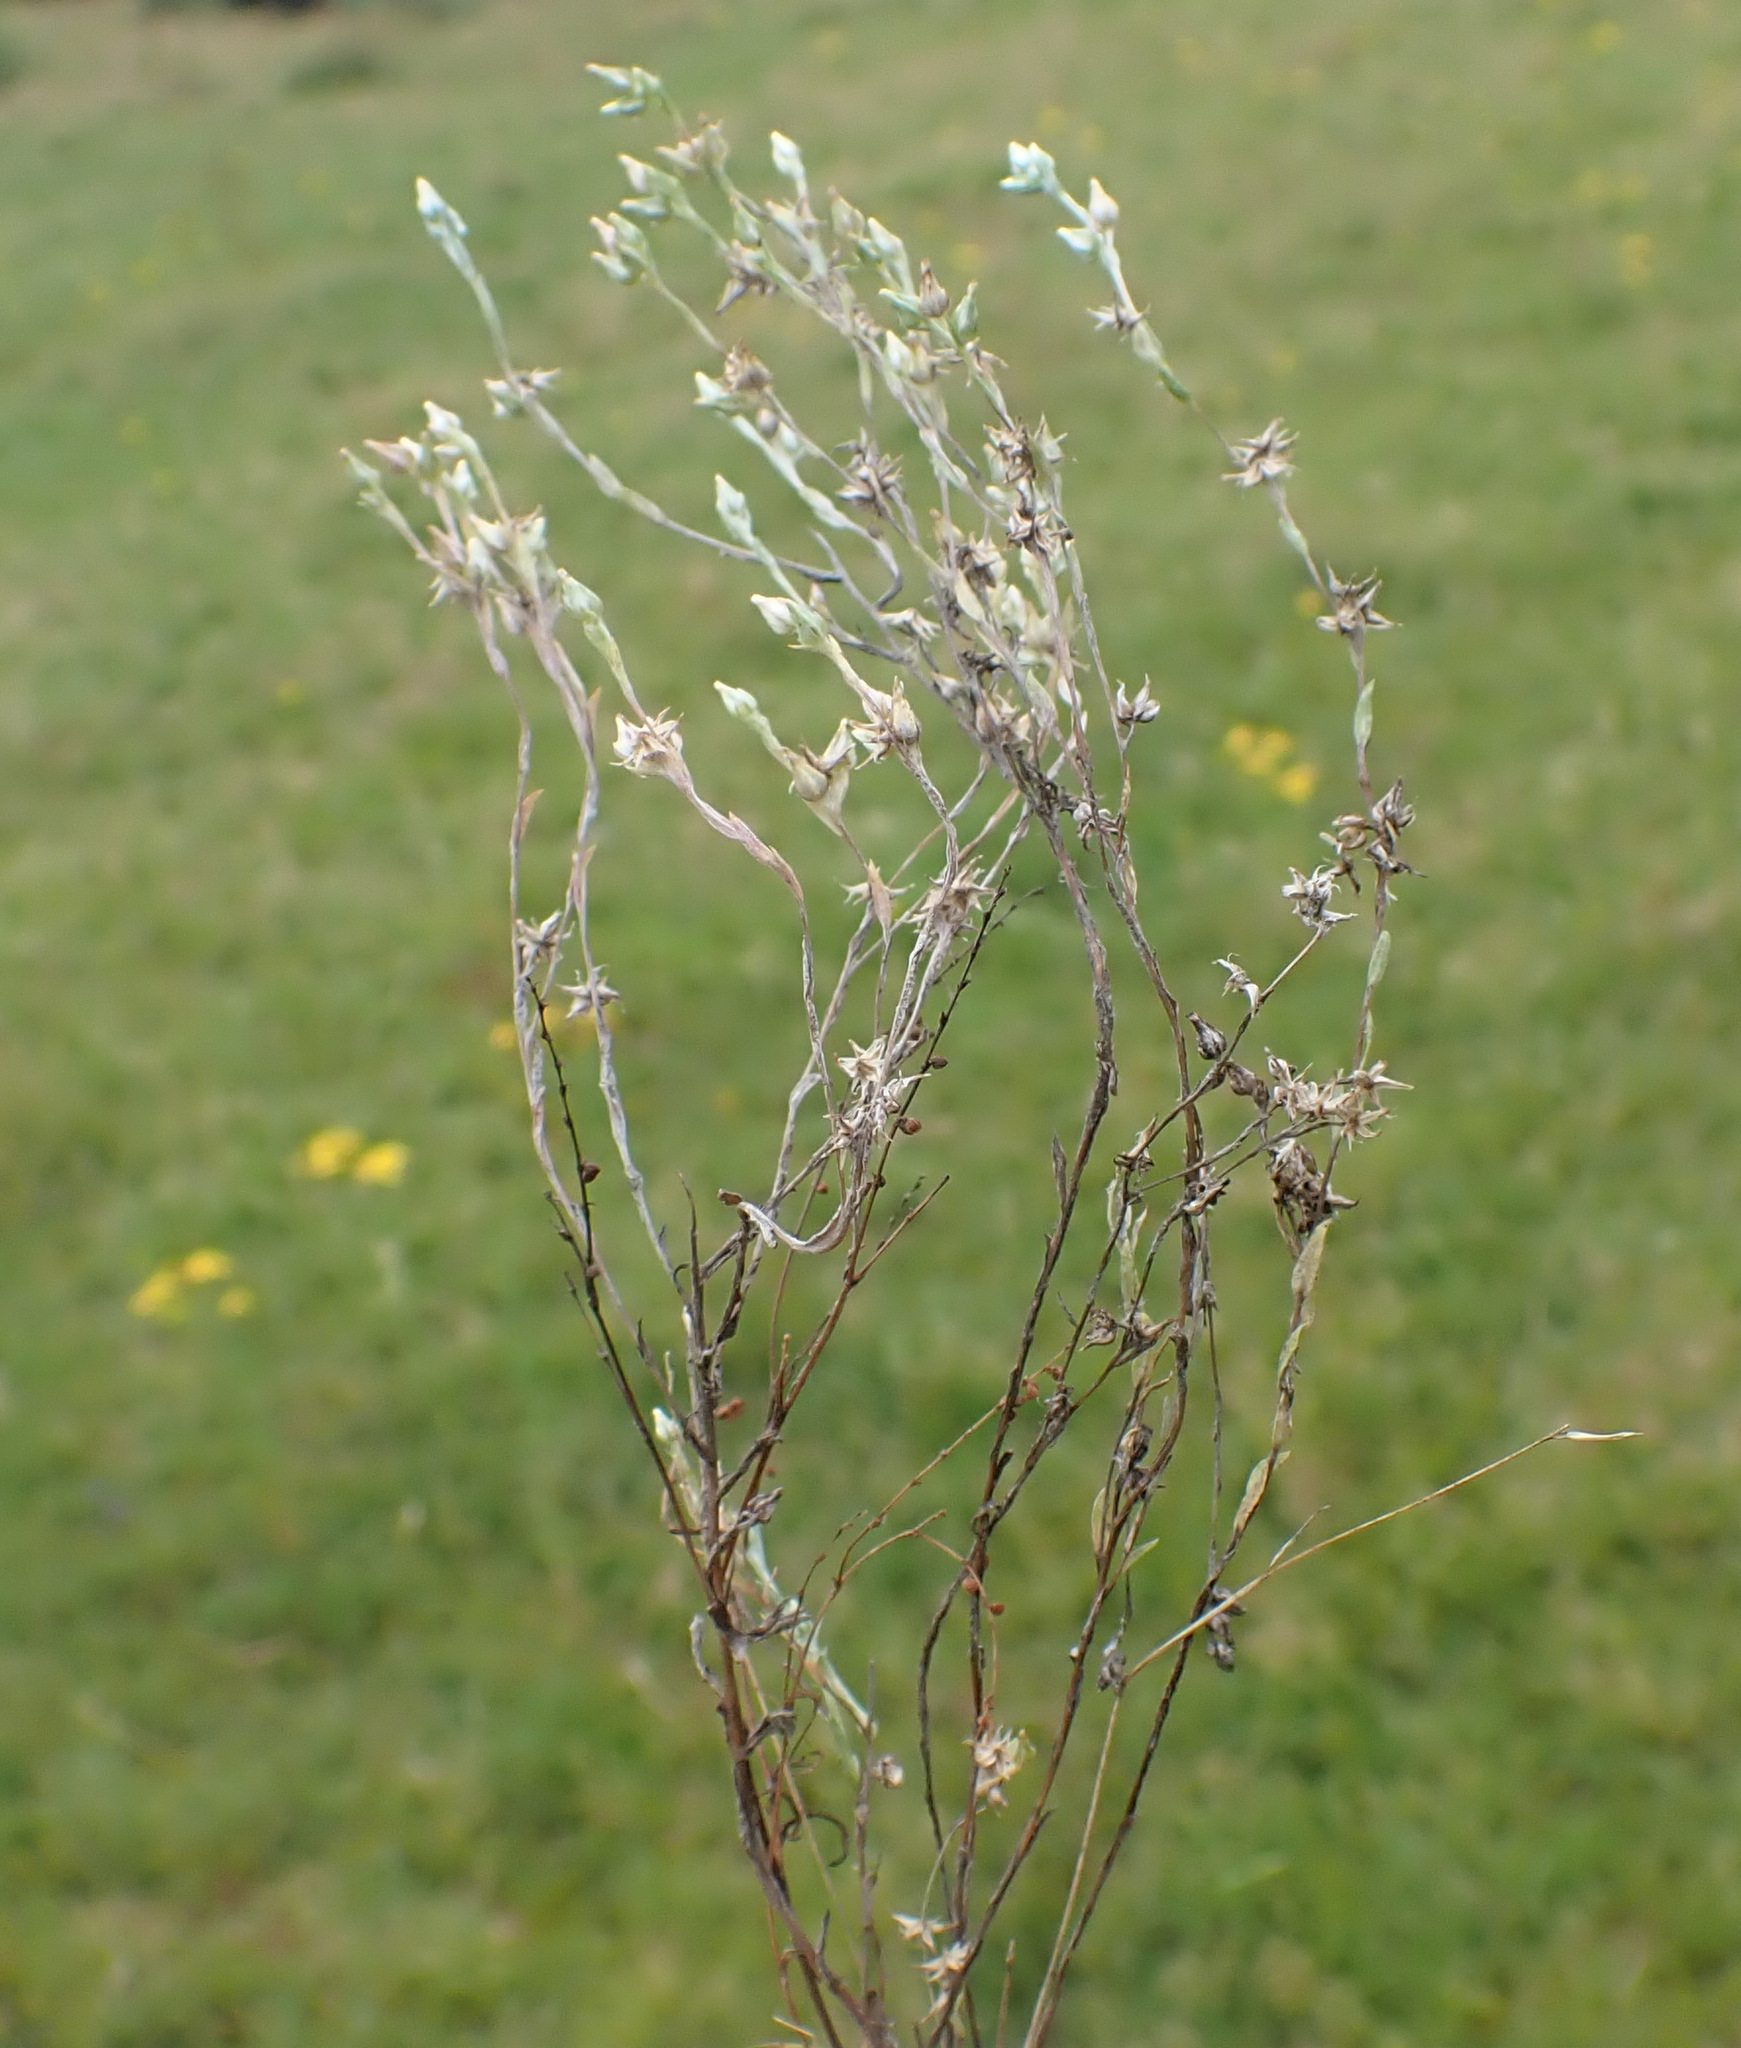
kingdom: Plantae
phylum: Tracheophyta
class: Magnoliopsida
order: Asterales
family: Asteraceae
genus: Logfia
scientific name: Logfia minima
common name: Little cottonrose
